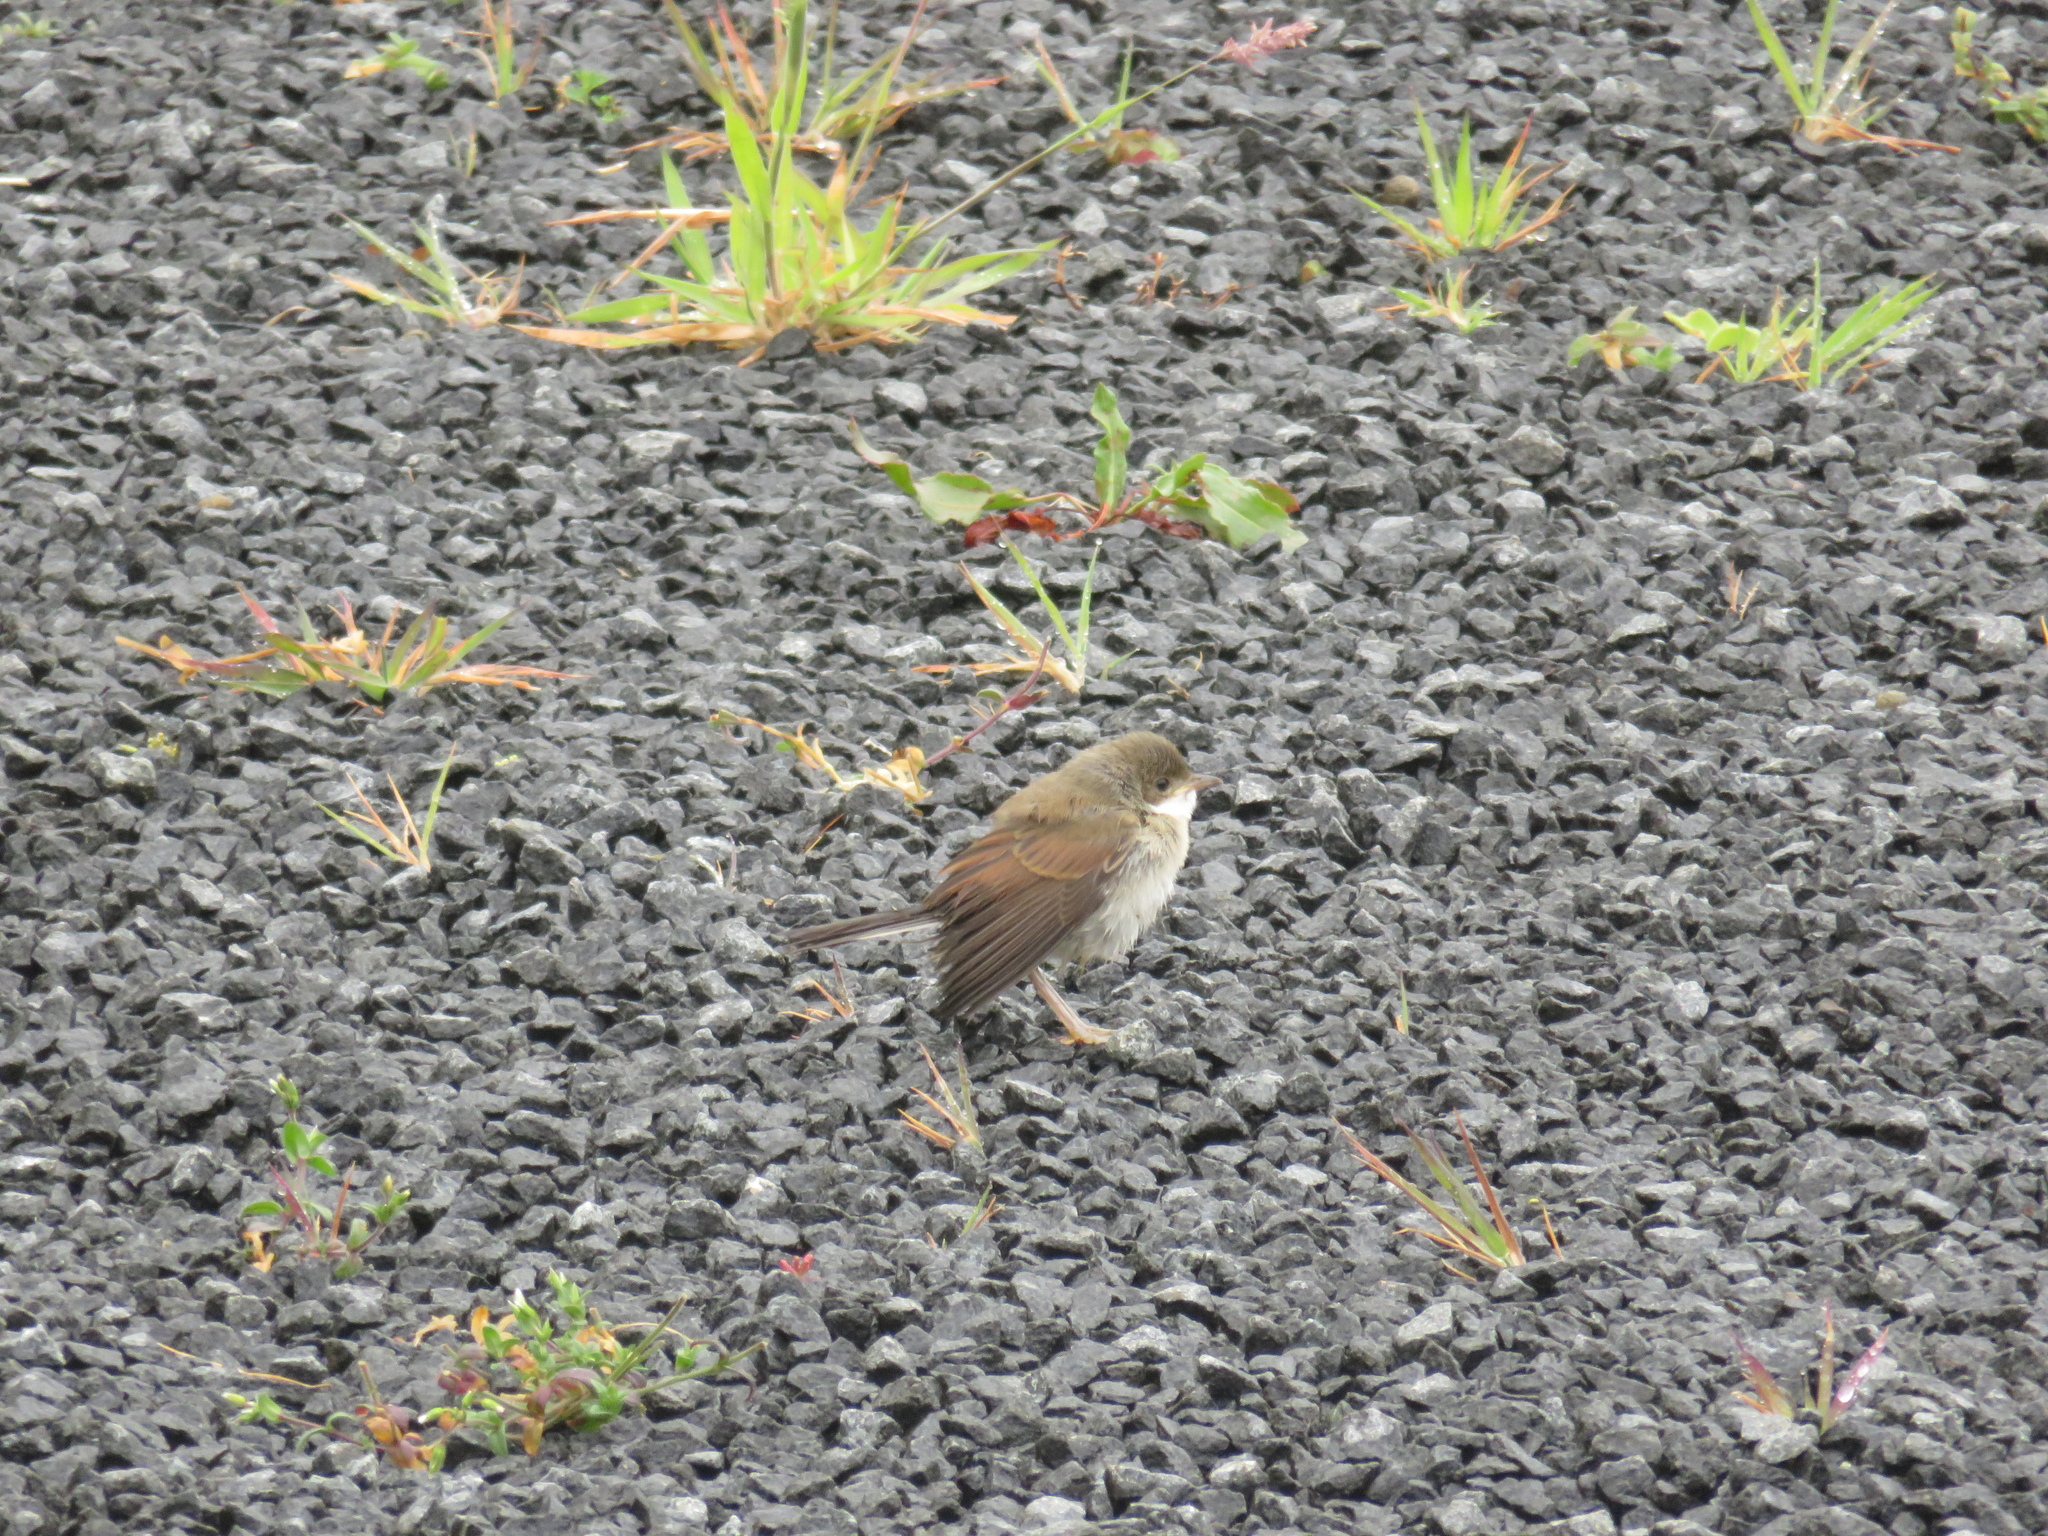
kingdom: Animalia
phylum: Chordata
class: Aves
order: Passeriformes
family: Sylviidae
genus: Sylvia
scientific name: Sylvia communis
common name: Common whitethroat
